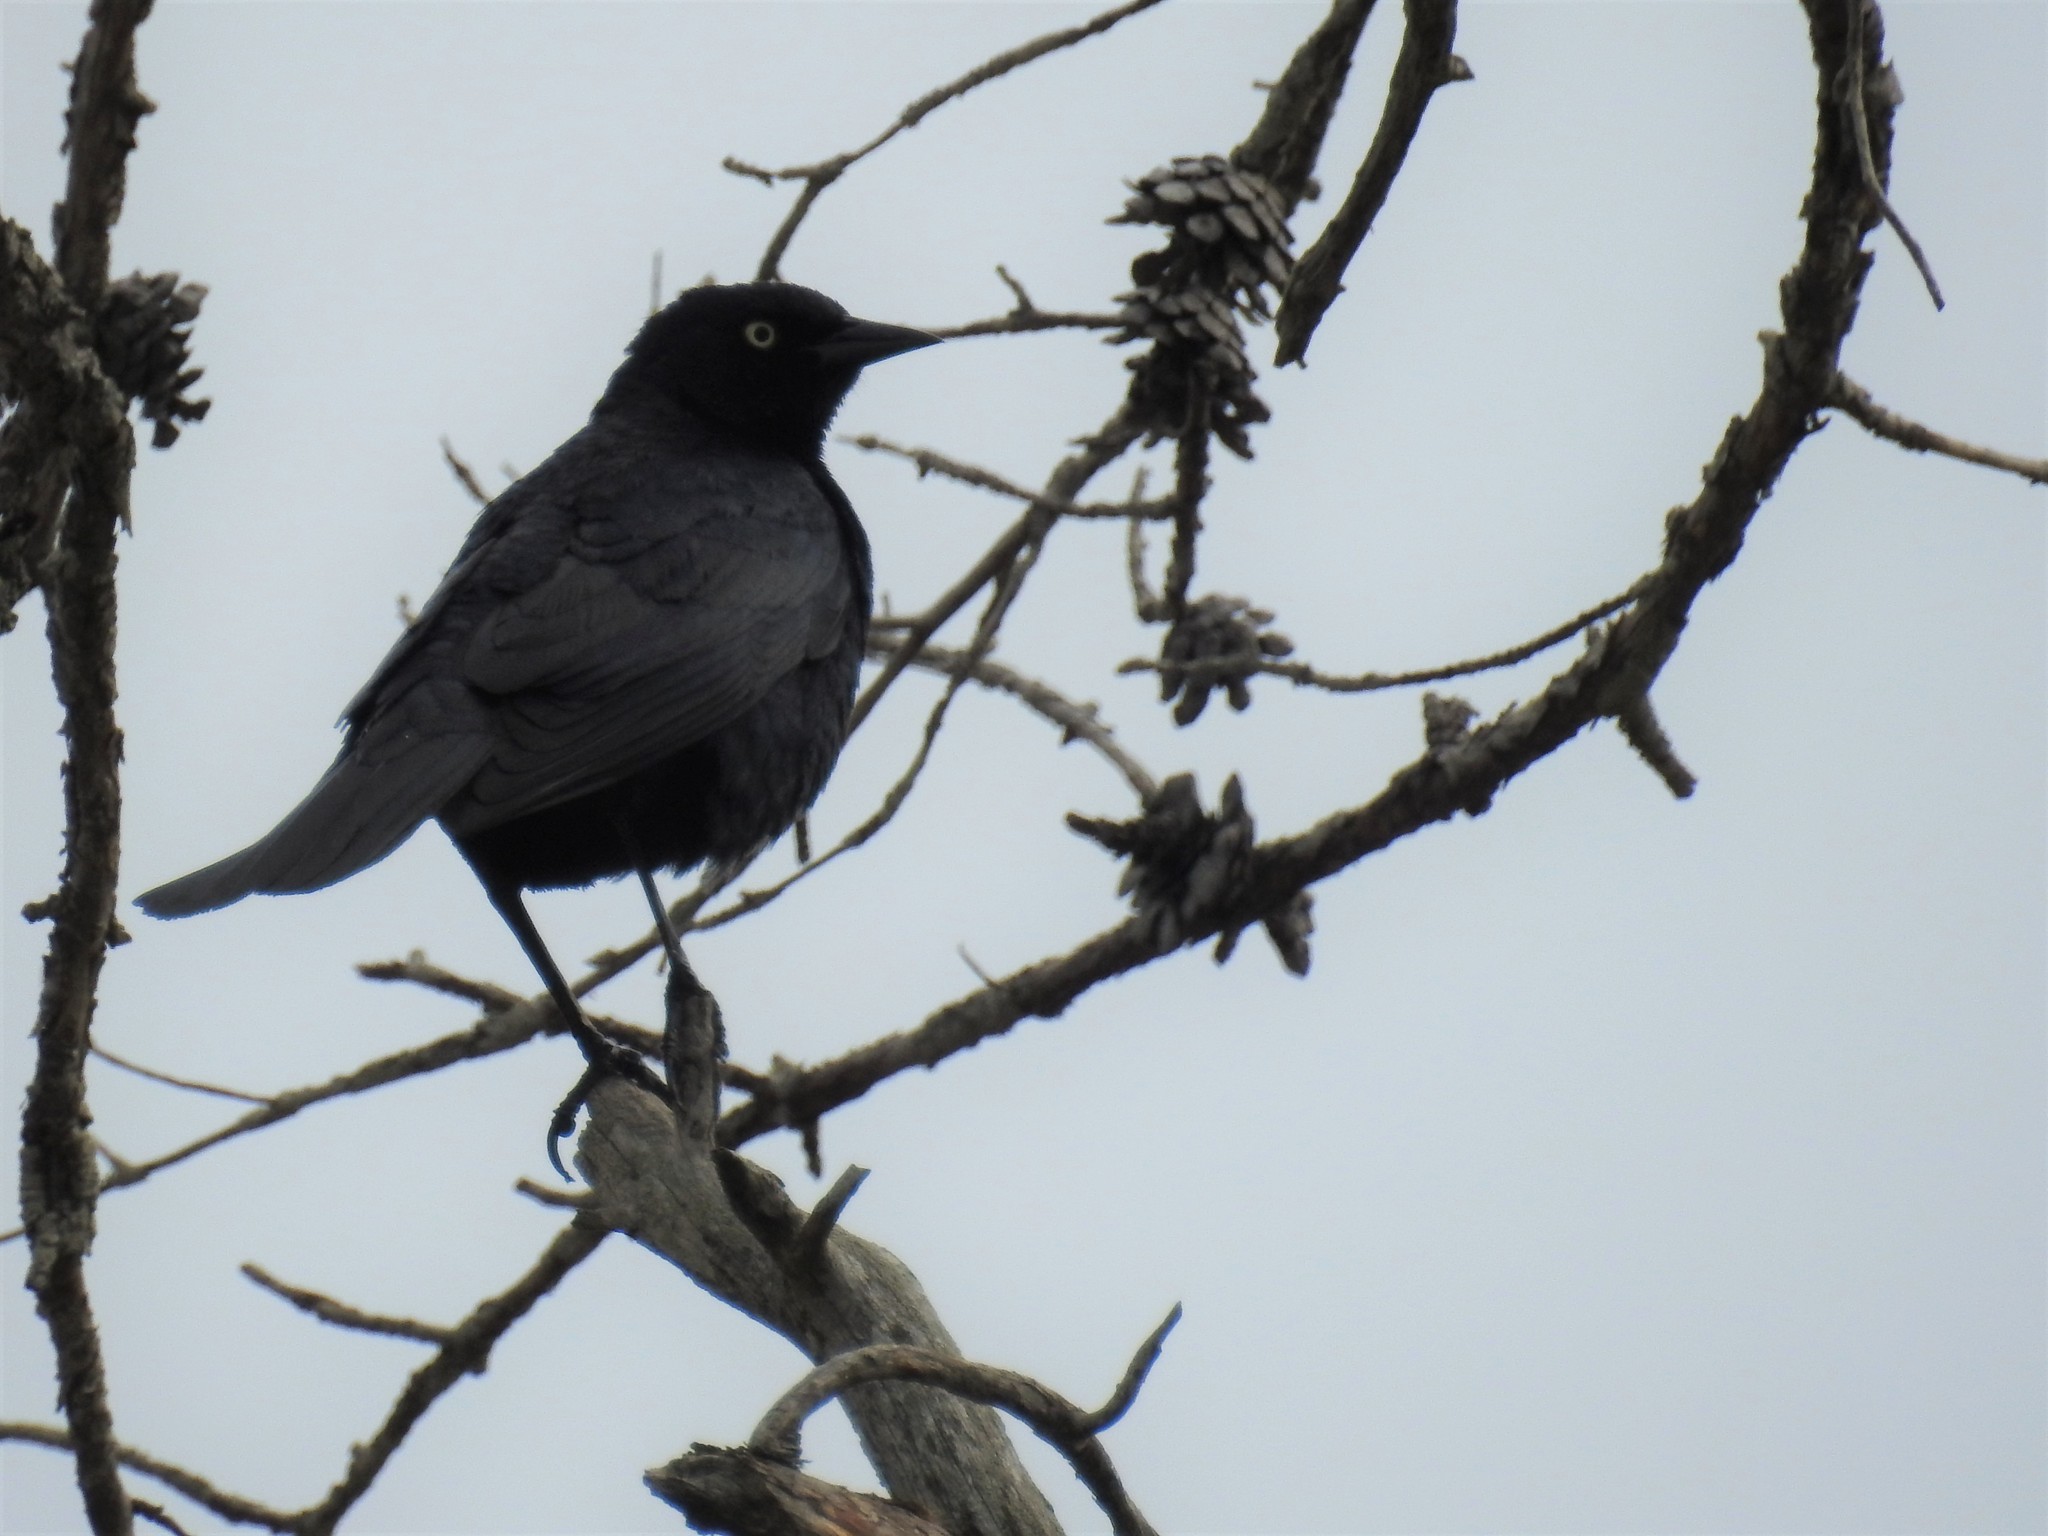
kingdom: Animalia
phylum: Chordata
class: Aves
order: Passeriformes
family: Icteridae
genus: Euphagus
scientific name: Euphagus cyanocephalus
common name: Brewer's blackbird
